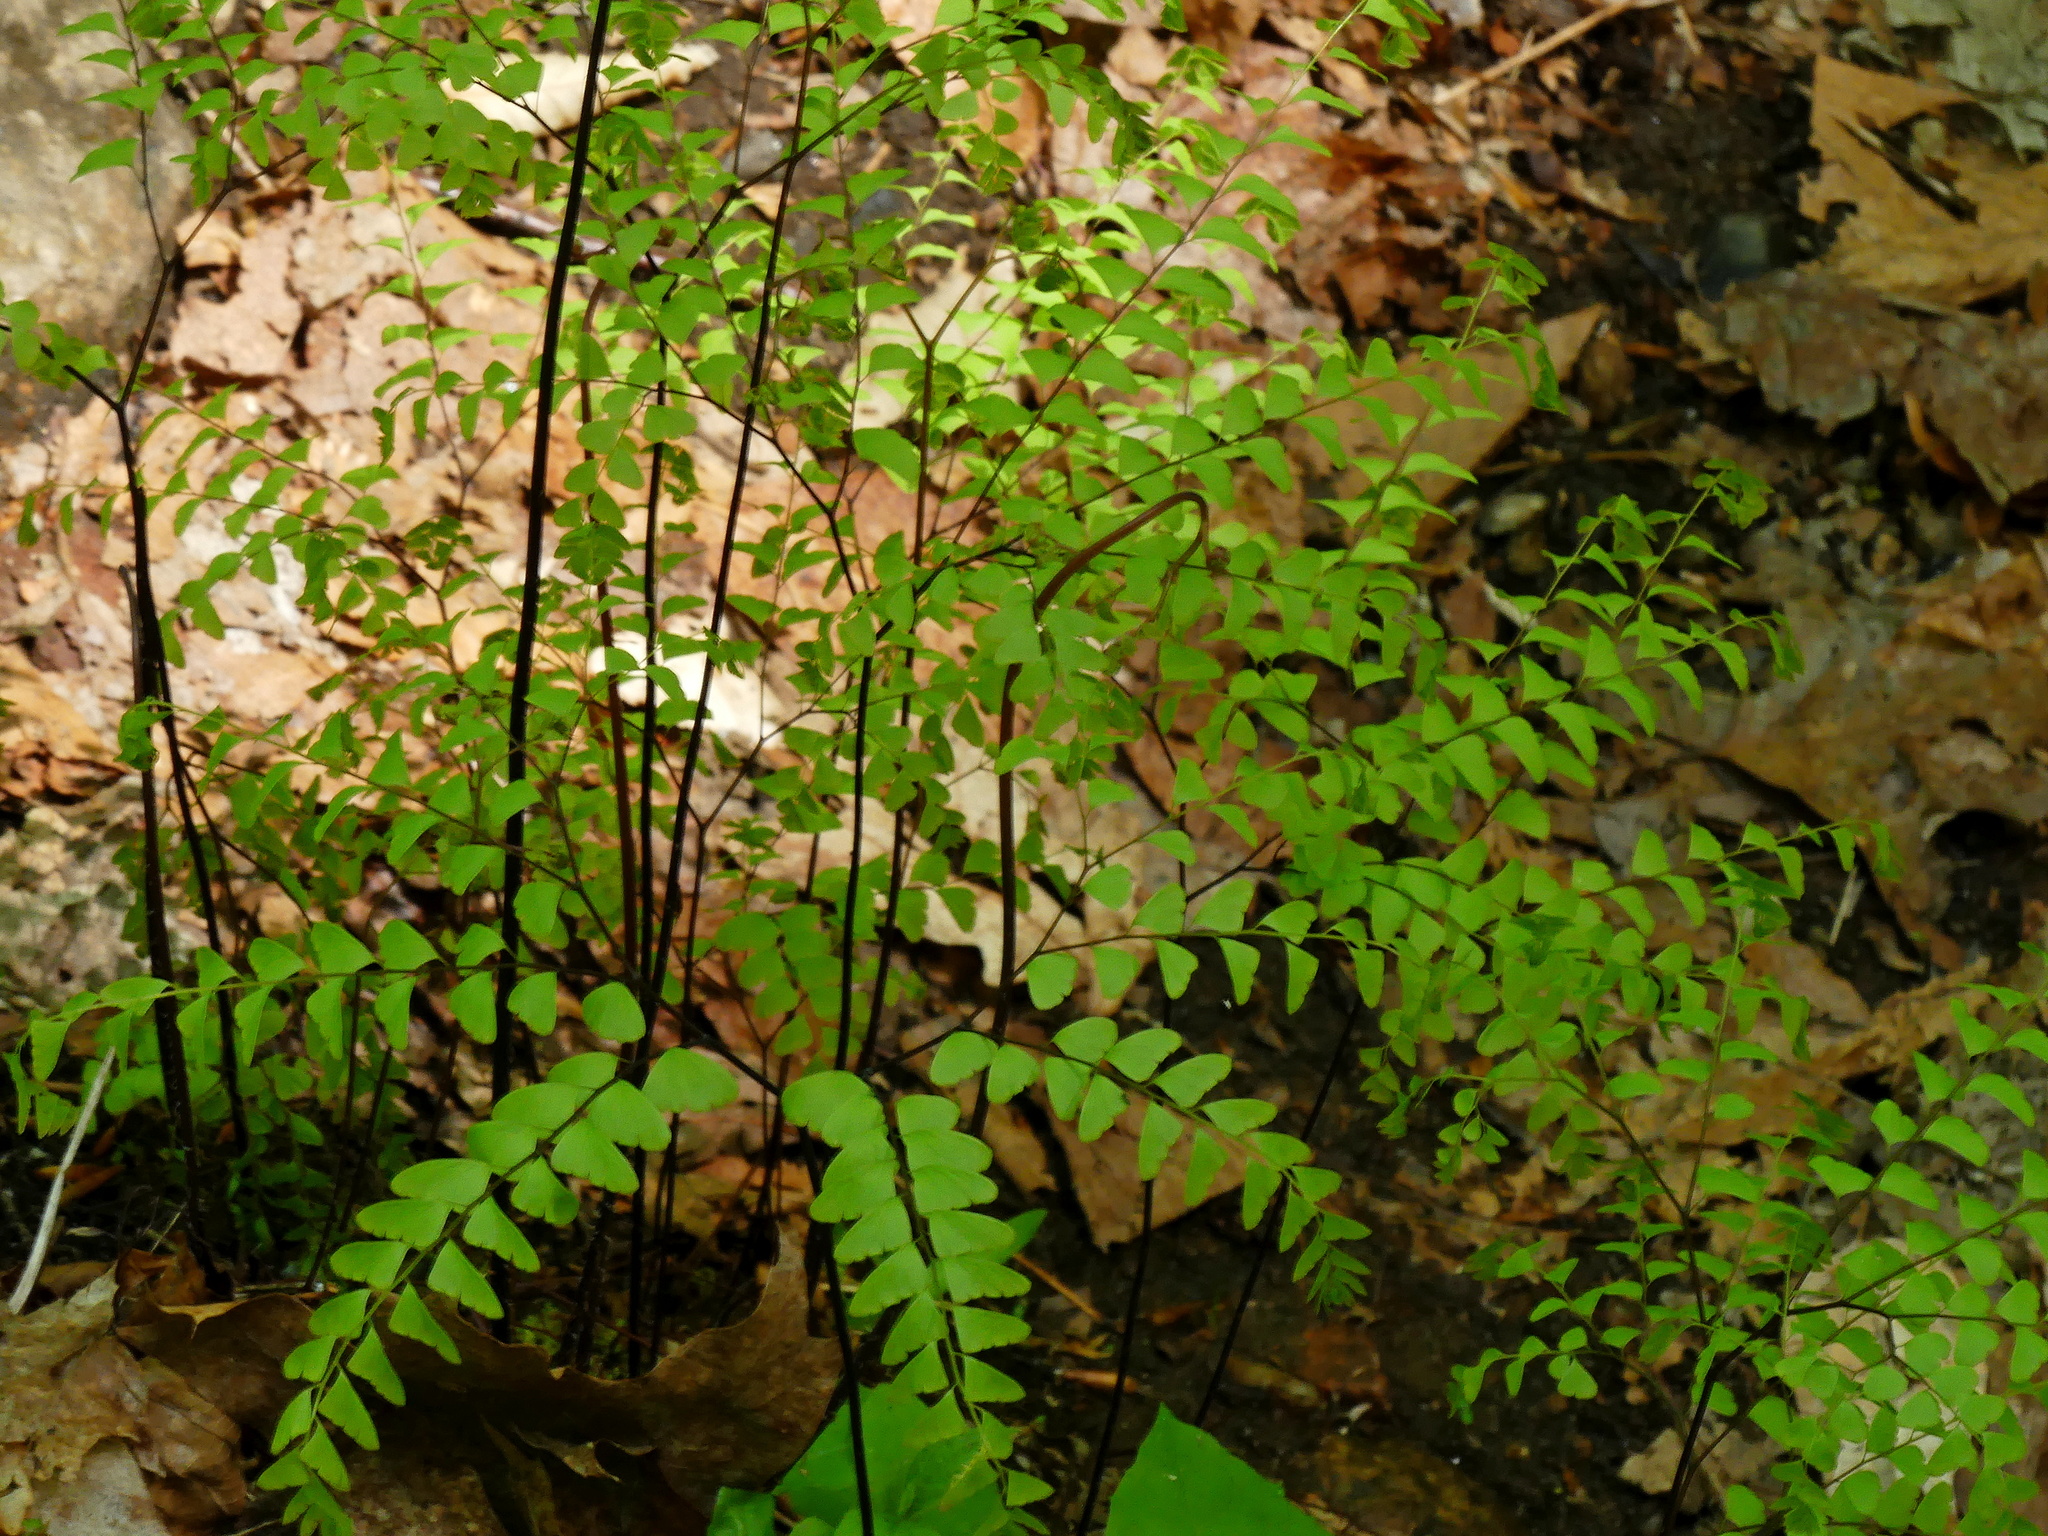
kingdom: Plantae
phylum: Tracheophyta
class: Polypodiopsida
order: Polypodiales
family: Pteridaceae
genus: Adiantum
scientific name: Adiantum pedatum
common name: Five-finger fern
